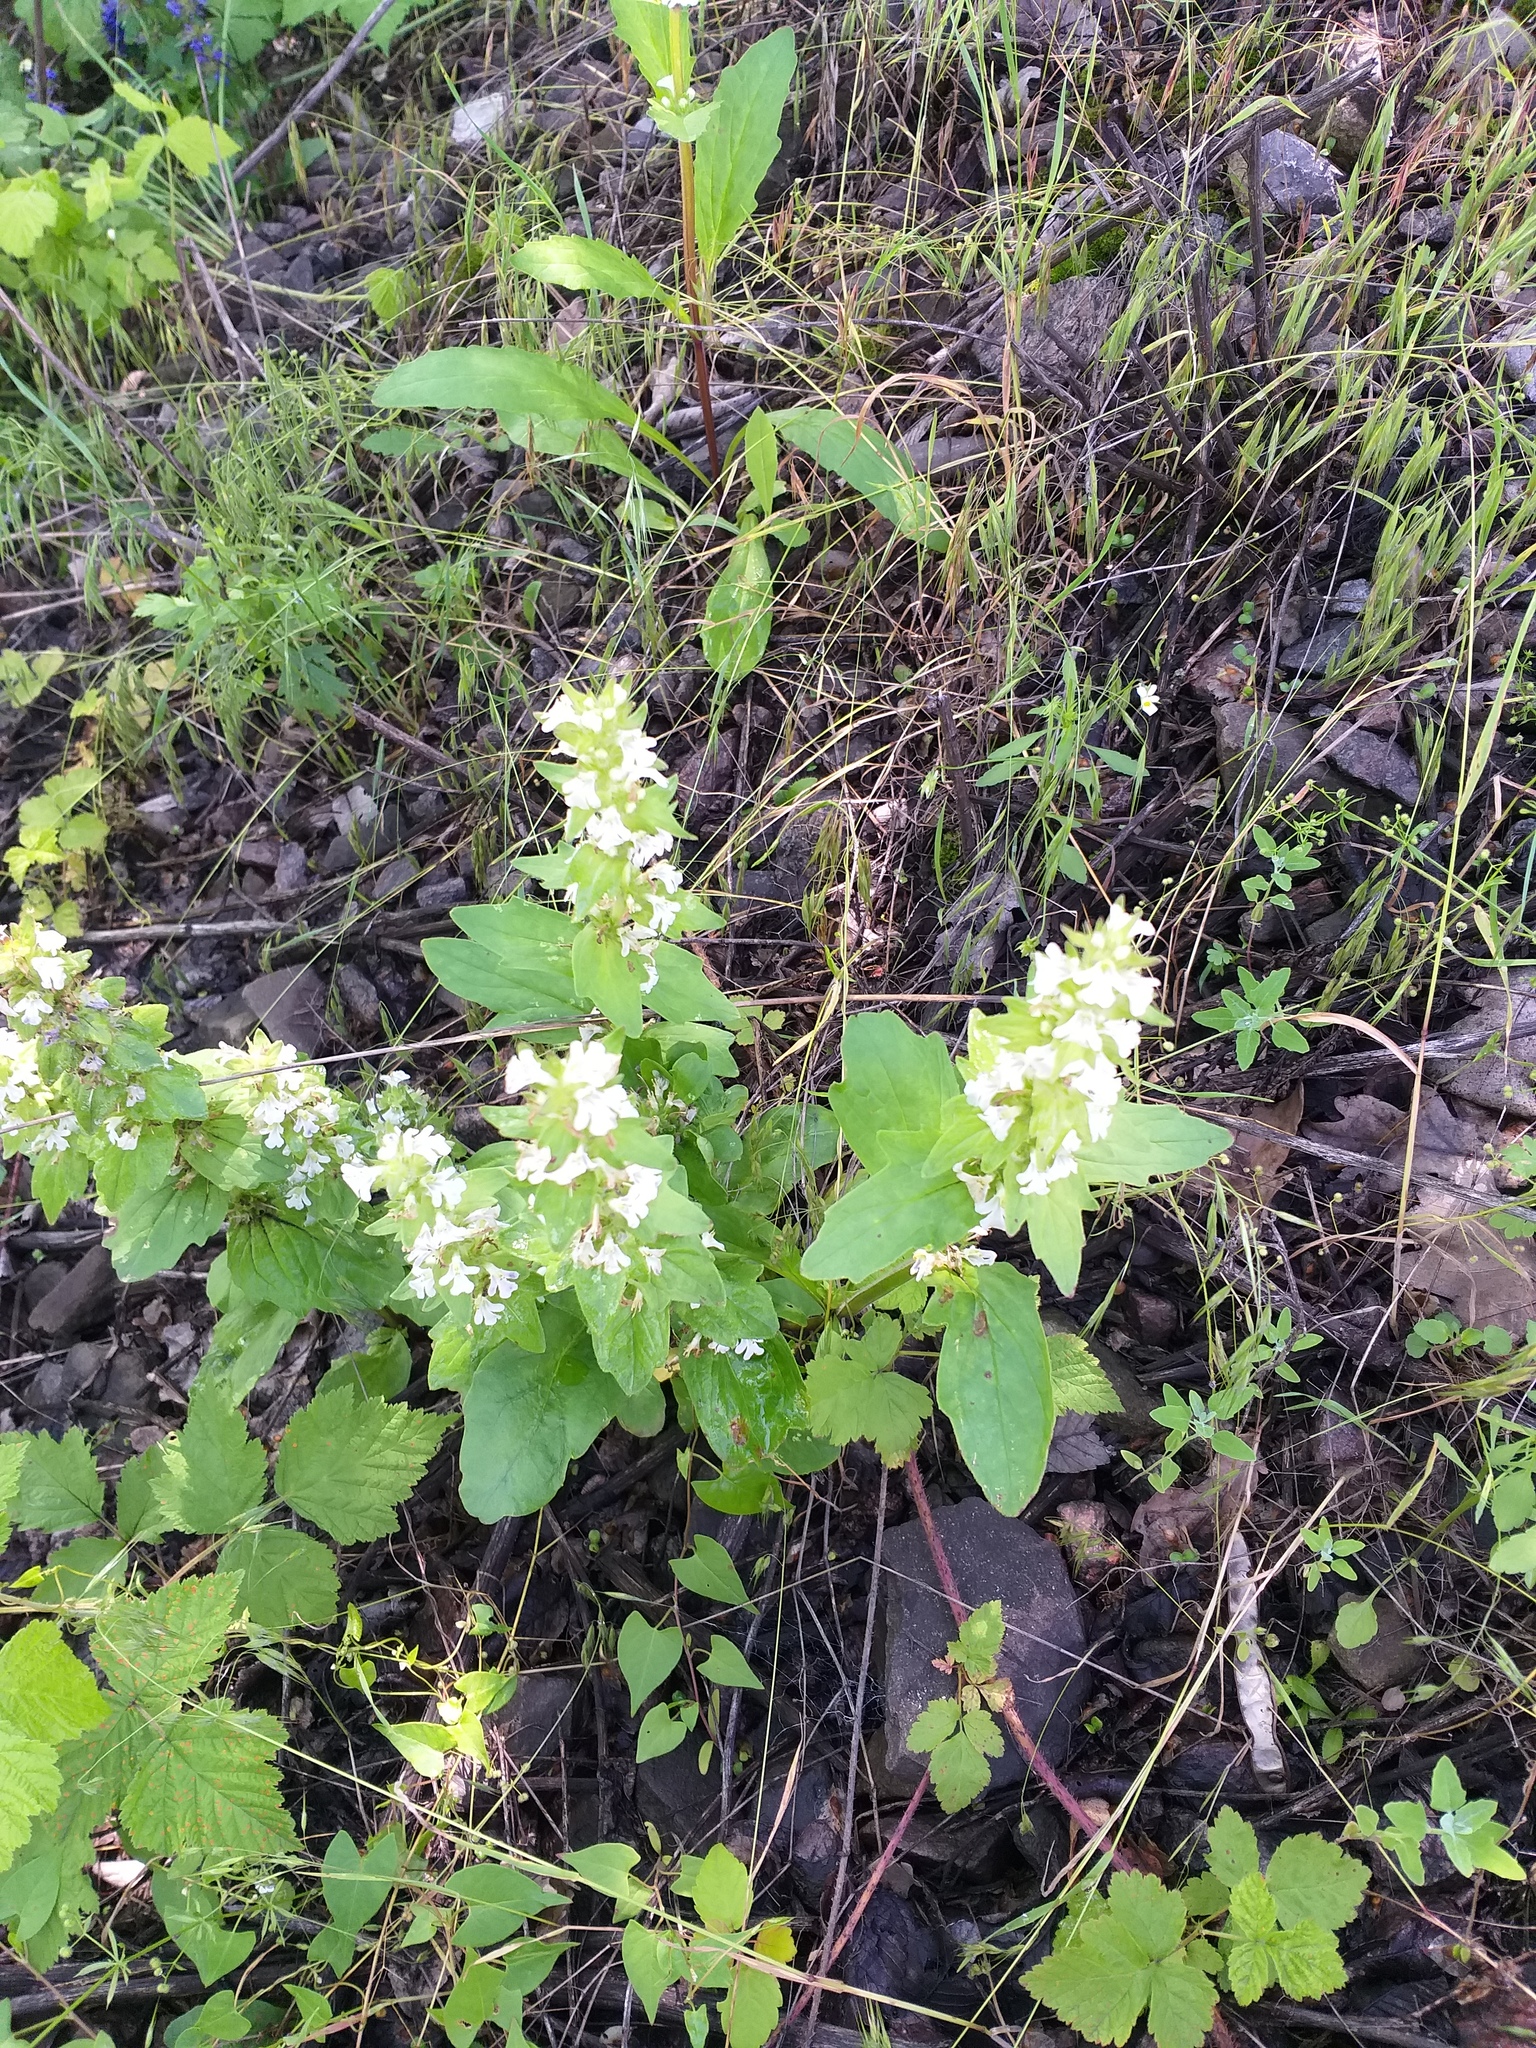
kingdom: Plantae
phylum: Tracheophyta
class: Magnoliopsida
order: Lamiales
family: Lamiaceae
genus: Ajuga
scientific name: Ajuga genevensis
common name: Blue bugle
